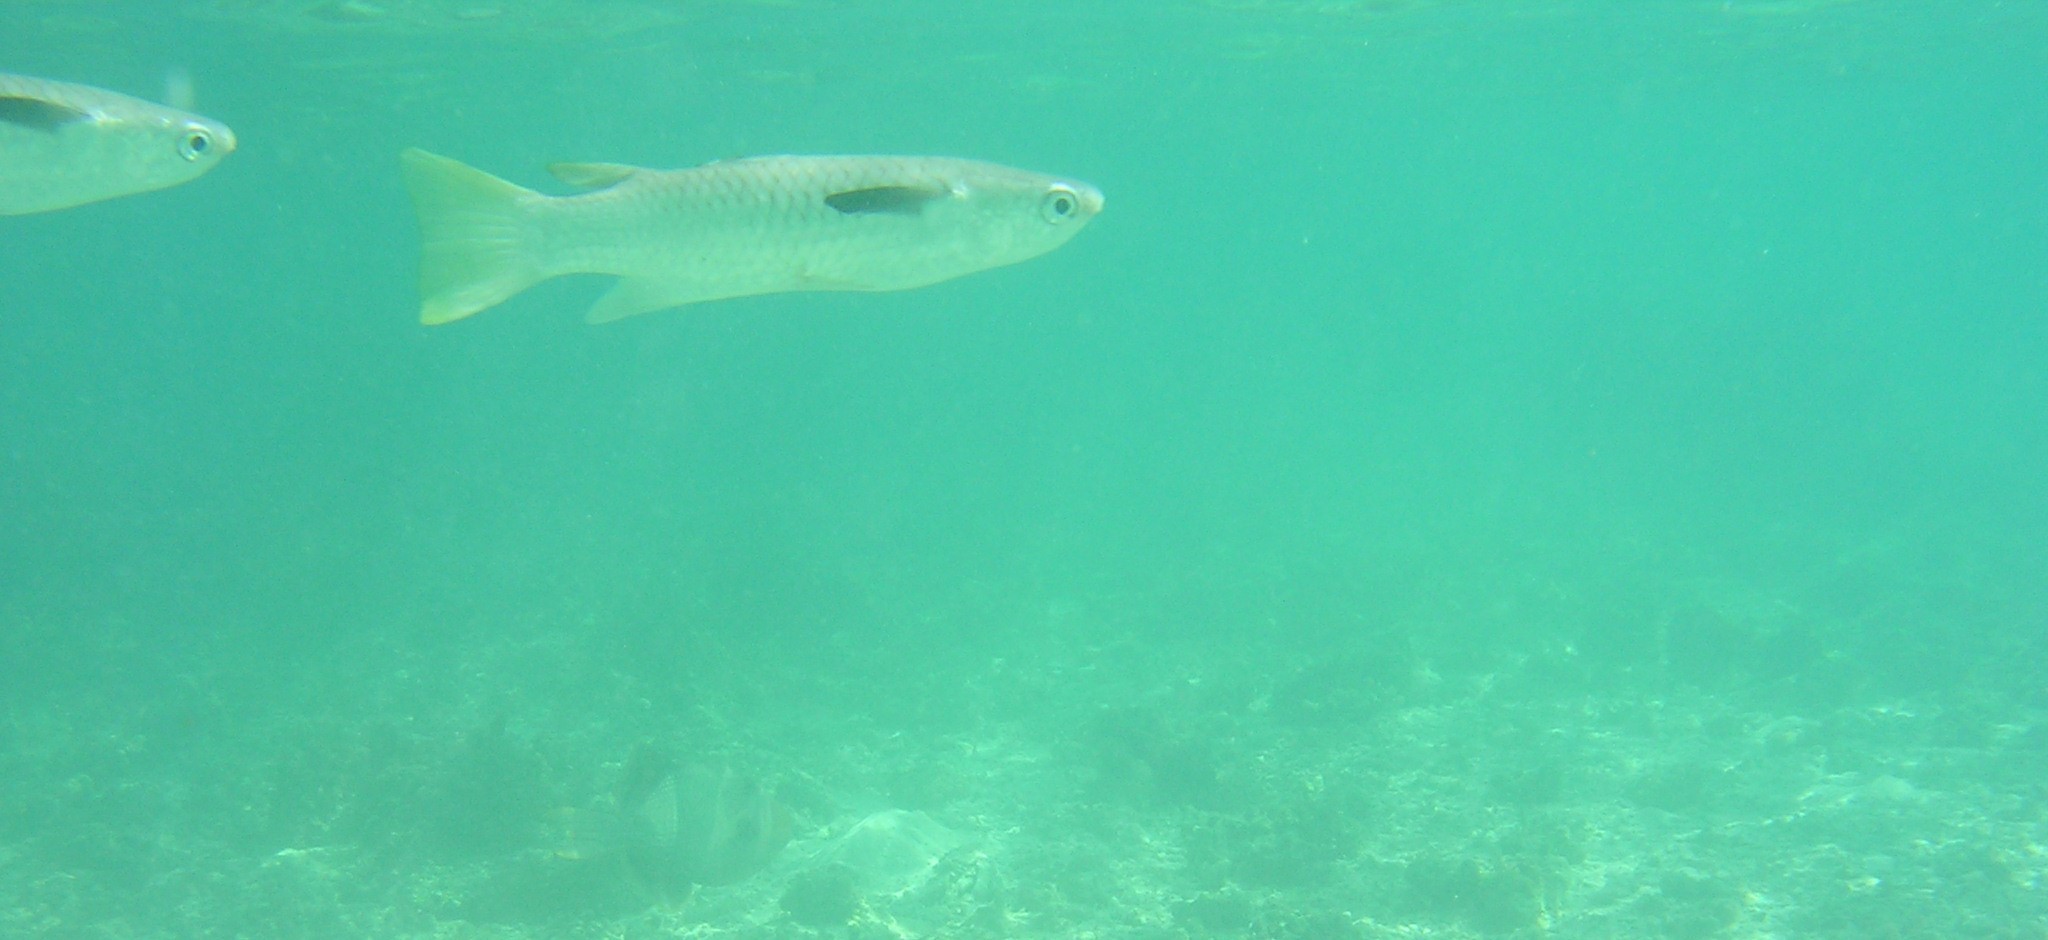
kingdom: Animalia
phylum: Chordata
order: Mugiliformes
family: Mugilidae
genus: Ellochelon
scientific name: Ellochelon vaigiensis
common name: Squaretail mullet
